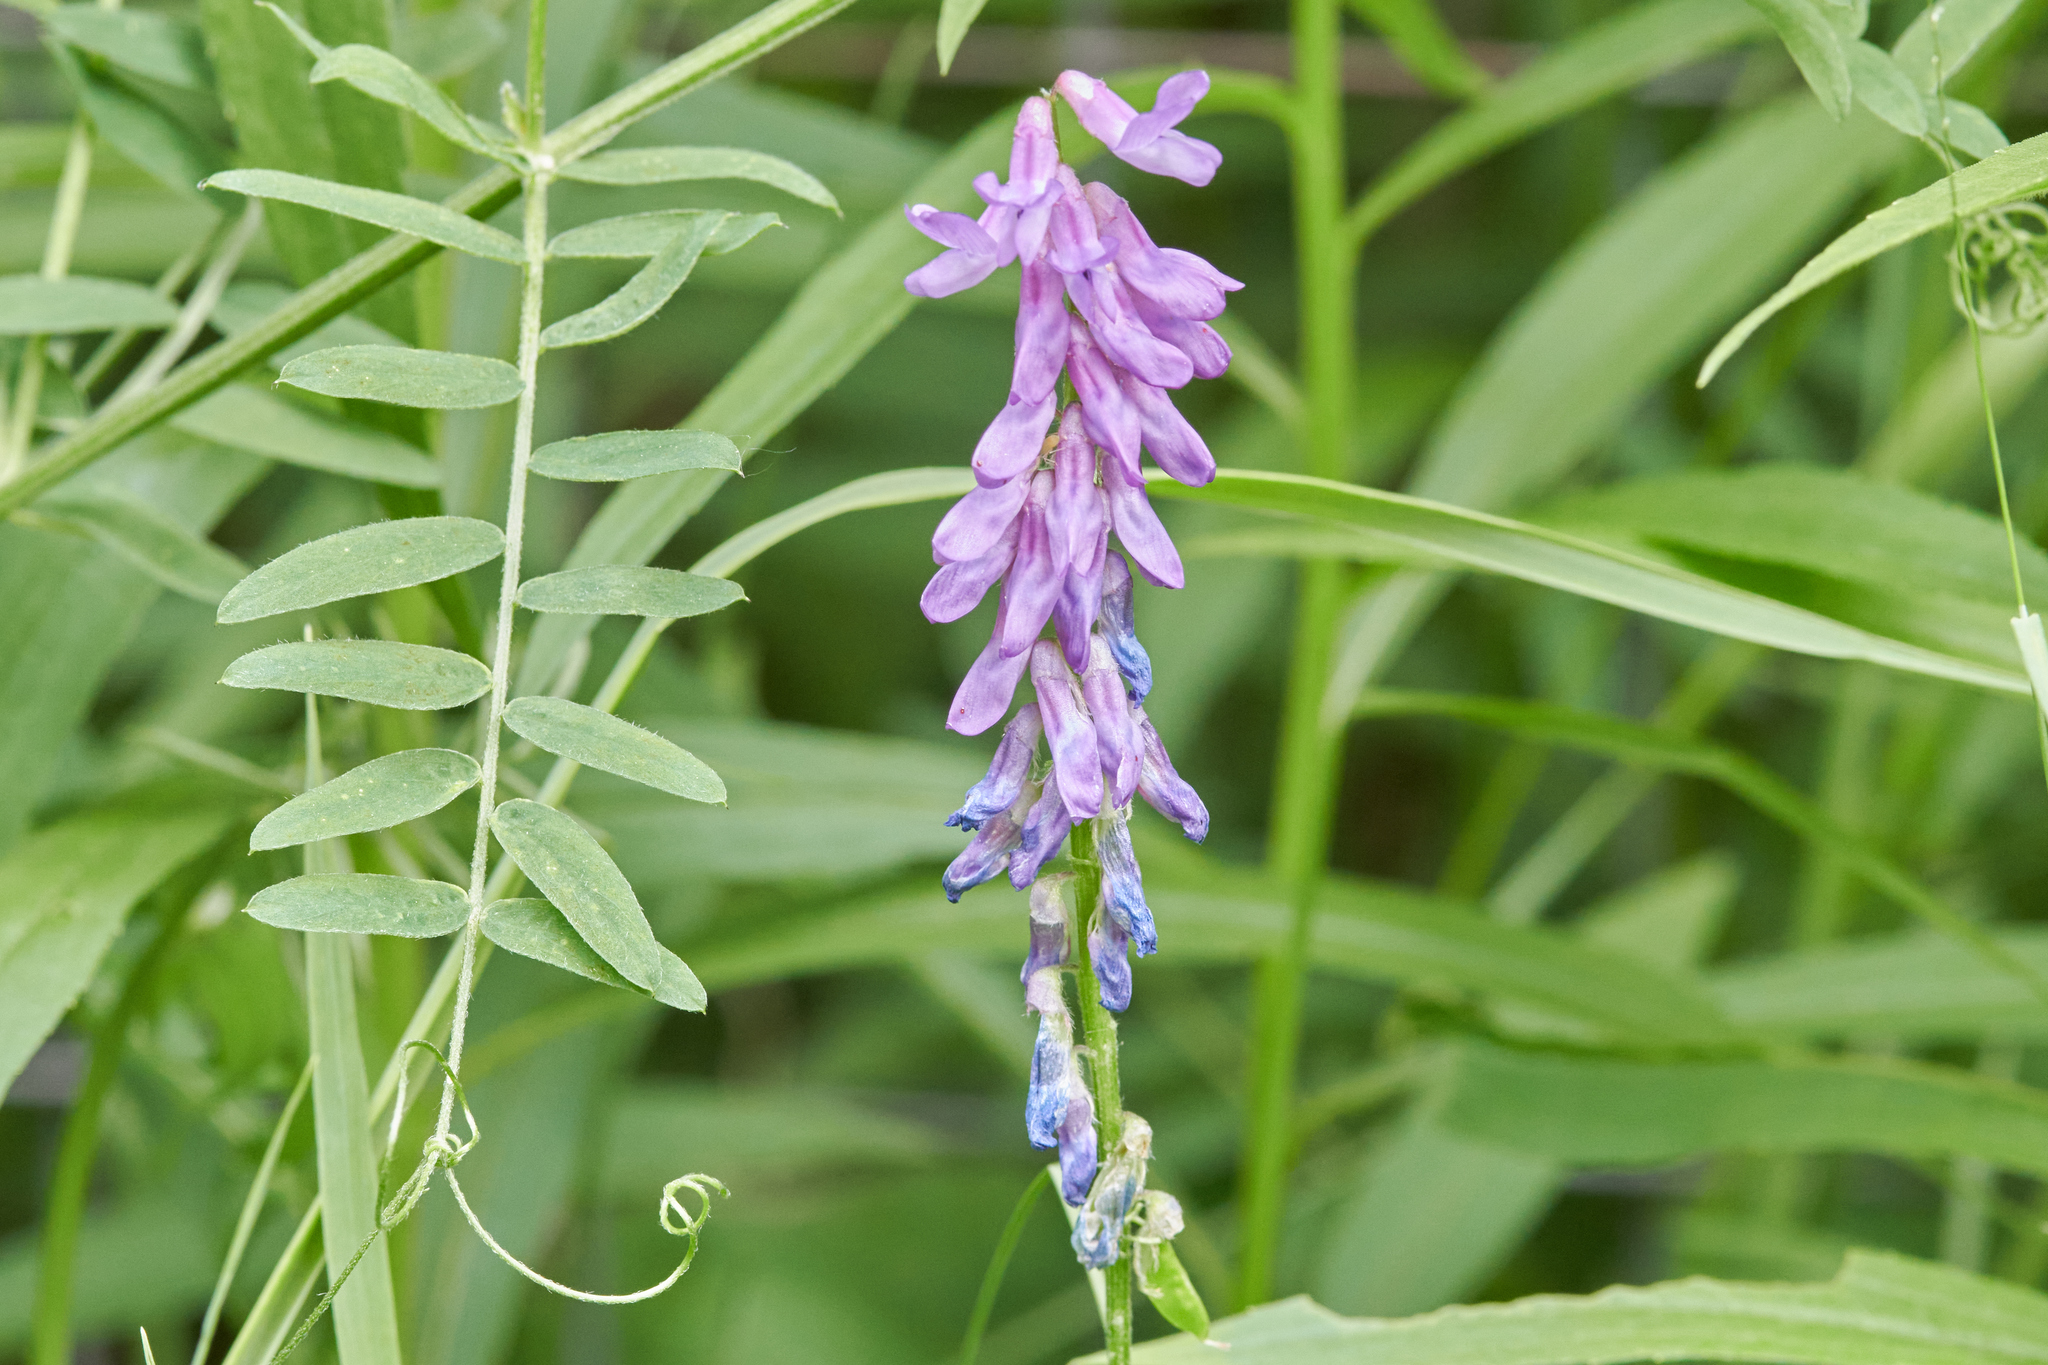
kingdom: Plantae
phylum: Tracheophyta
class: Magnoliopsida
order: Fabales
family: Fabaceae
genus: Vicia
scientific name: Vicia cracca
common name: Bird vetch
